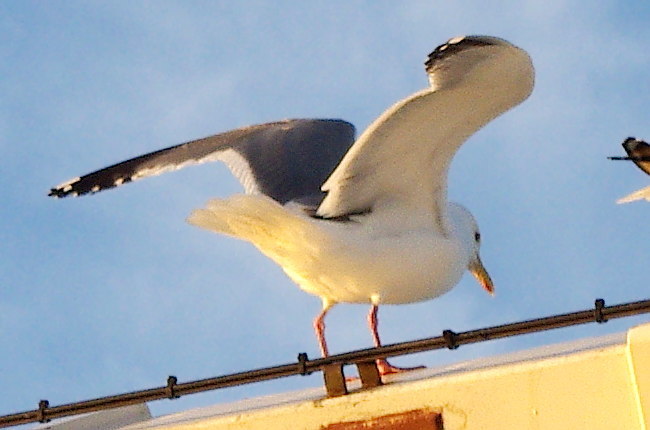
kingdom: Animalia
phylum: Chordata
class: Aves
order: Charadriiformes
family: Laridae
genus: Larus
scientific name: Larus vegae
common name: Vega gull
